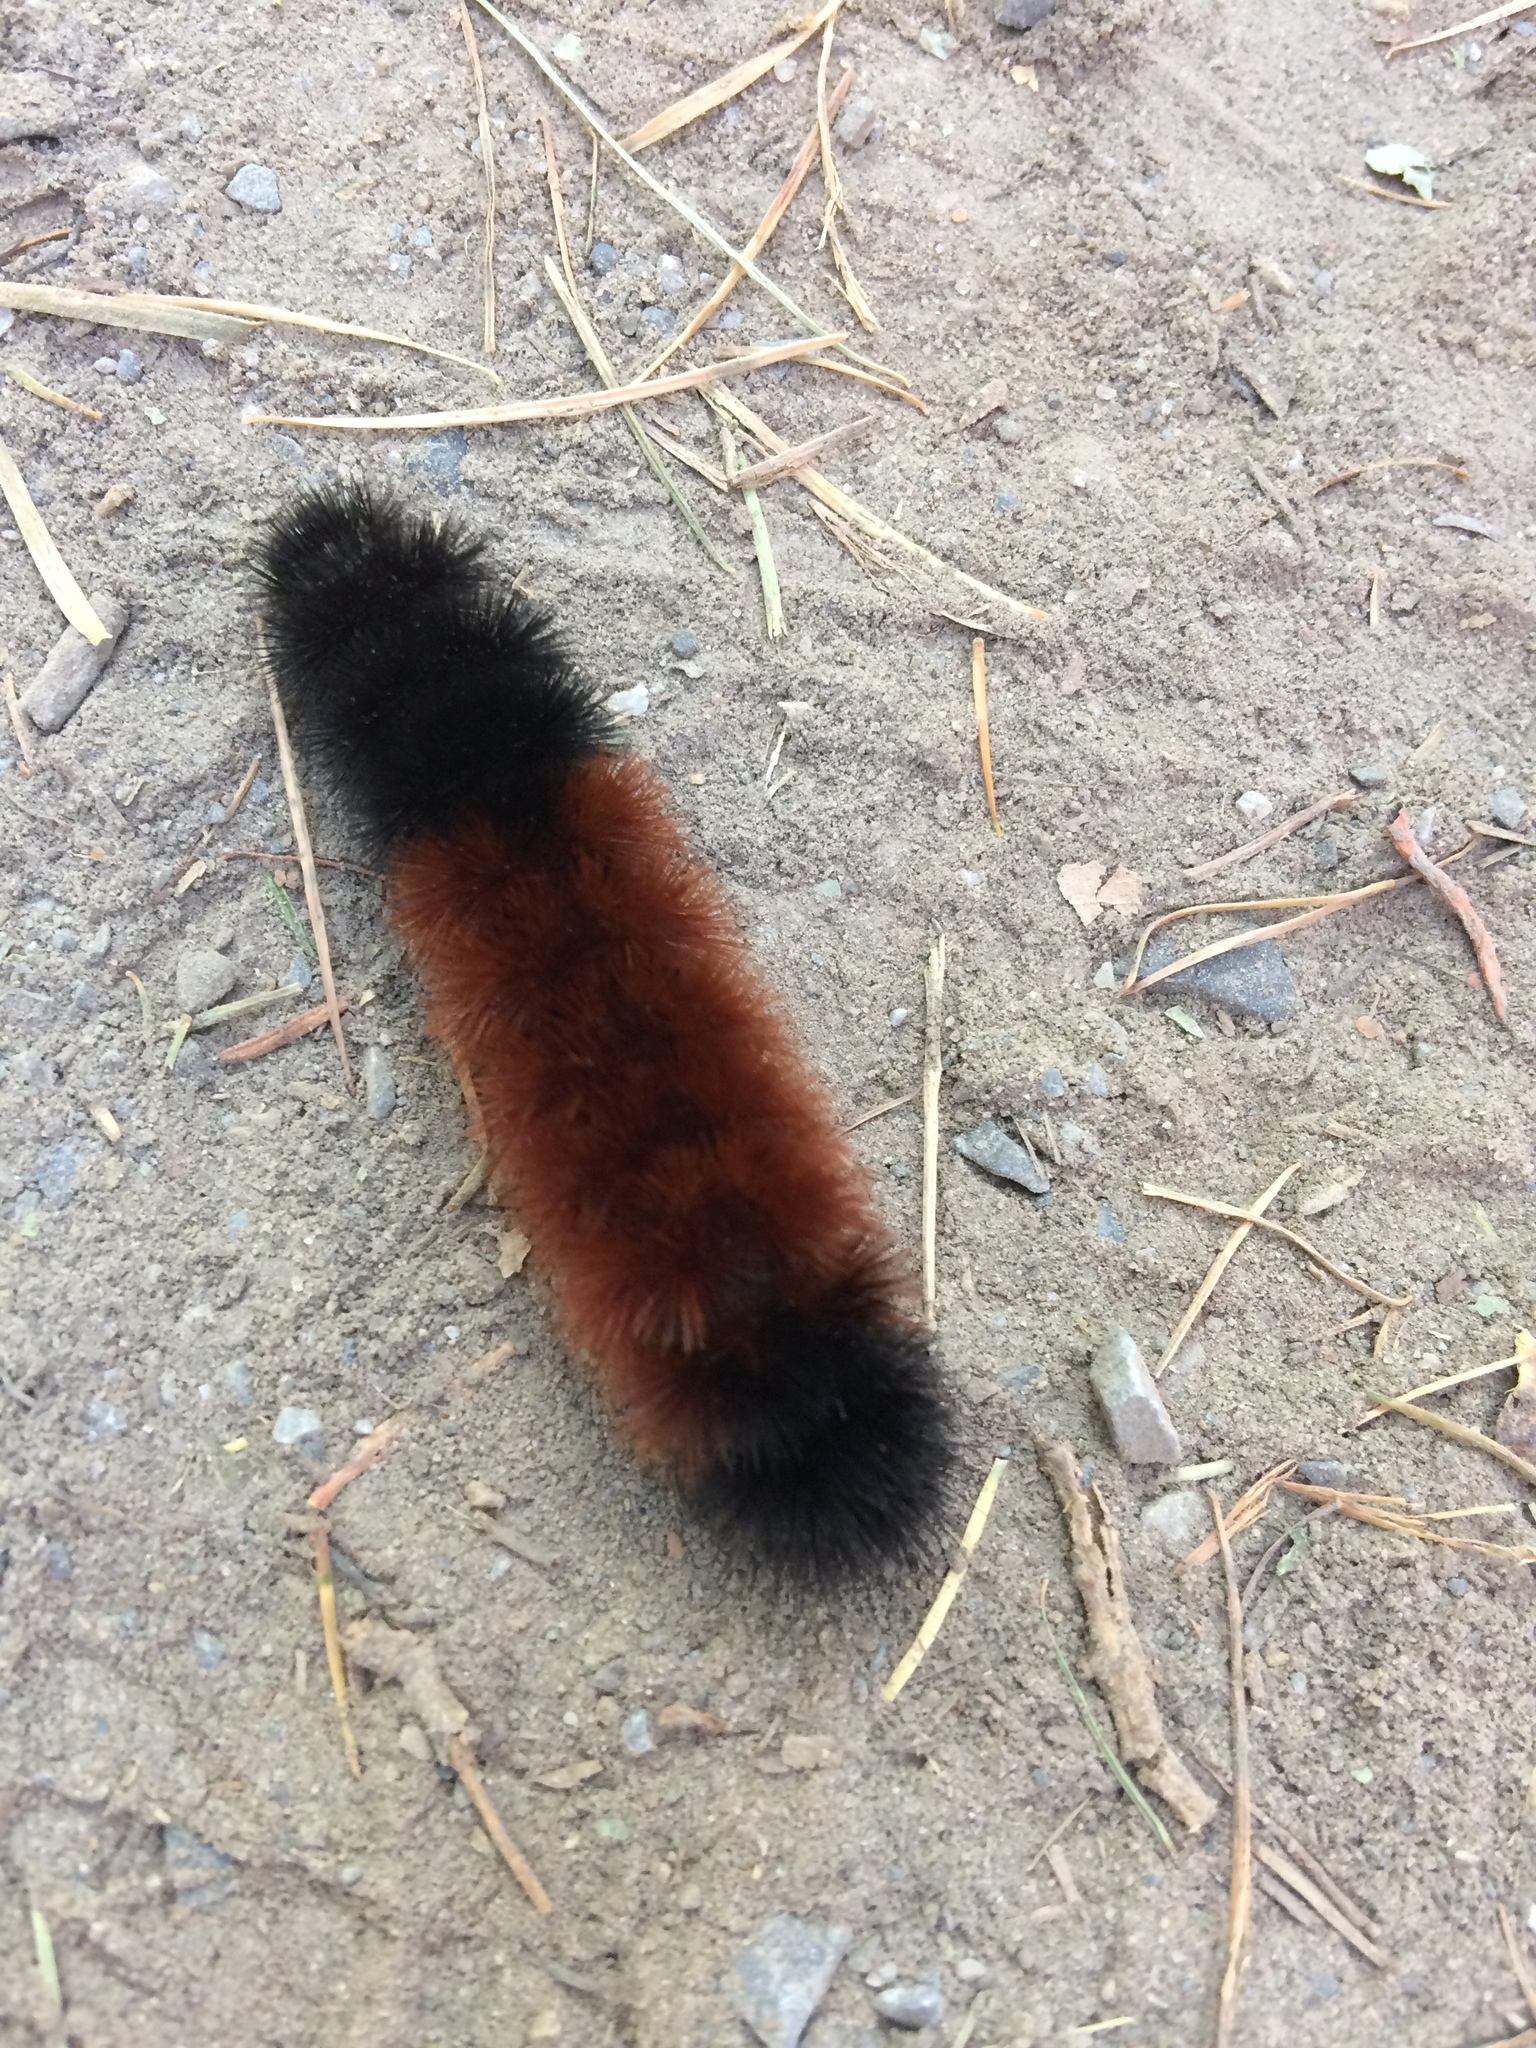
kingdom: Animalia
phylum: Arthropoda
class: Insecta
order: Lepidoptera
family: Erebidae
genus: Pyrrharctia
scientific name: Pyrrharctia isabella
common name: Isabella tiger moth
